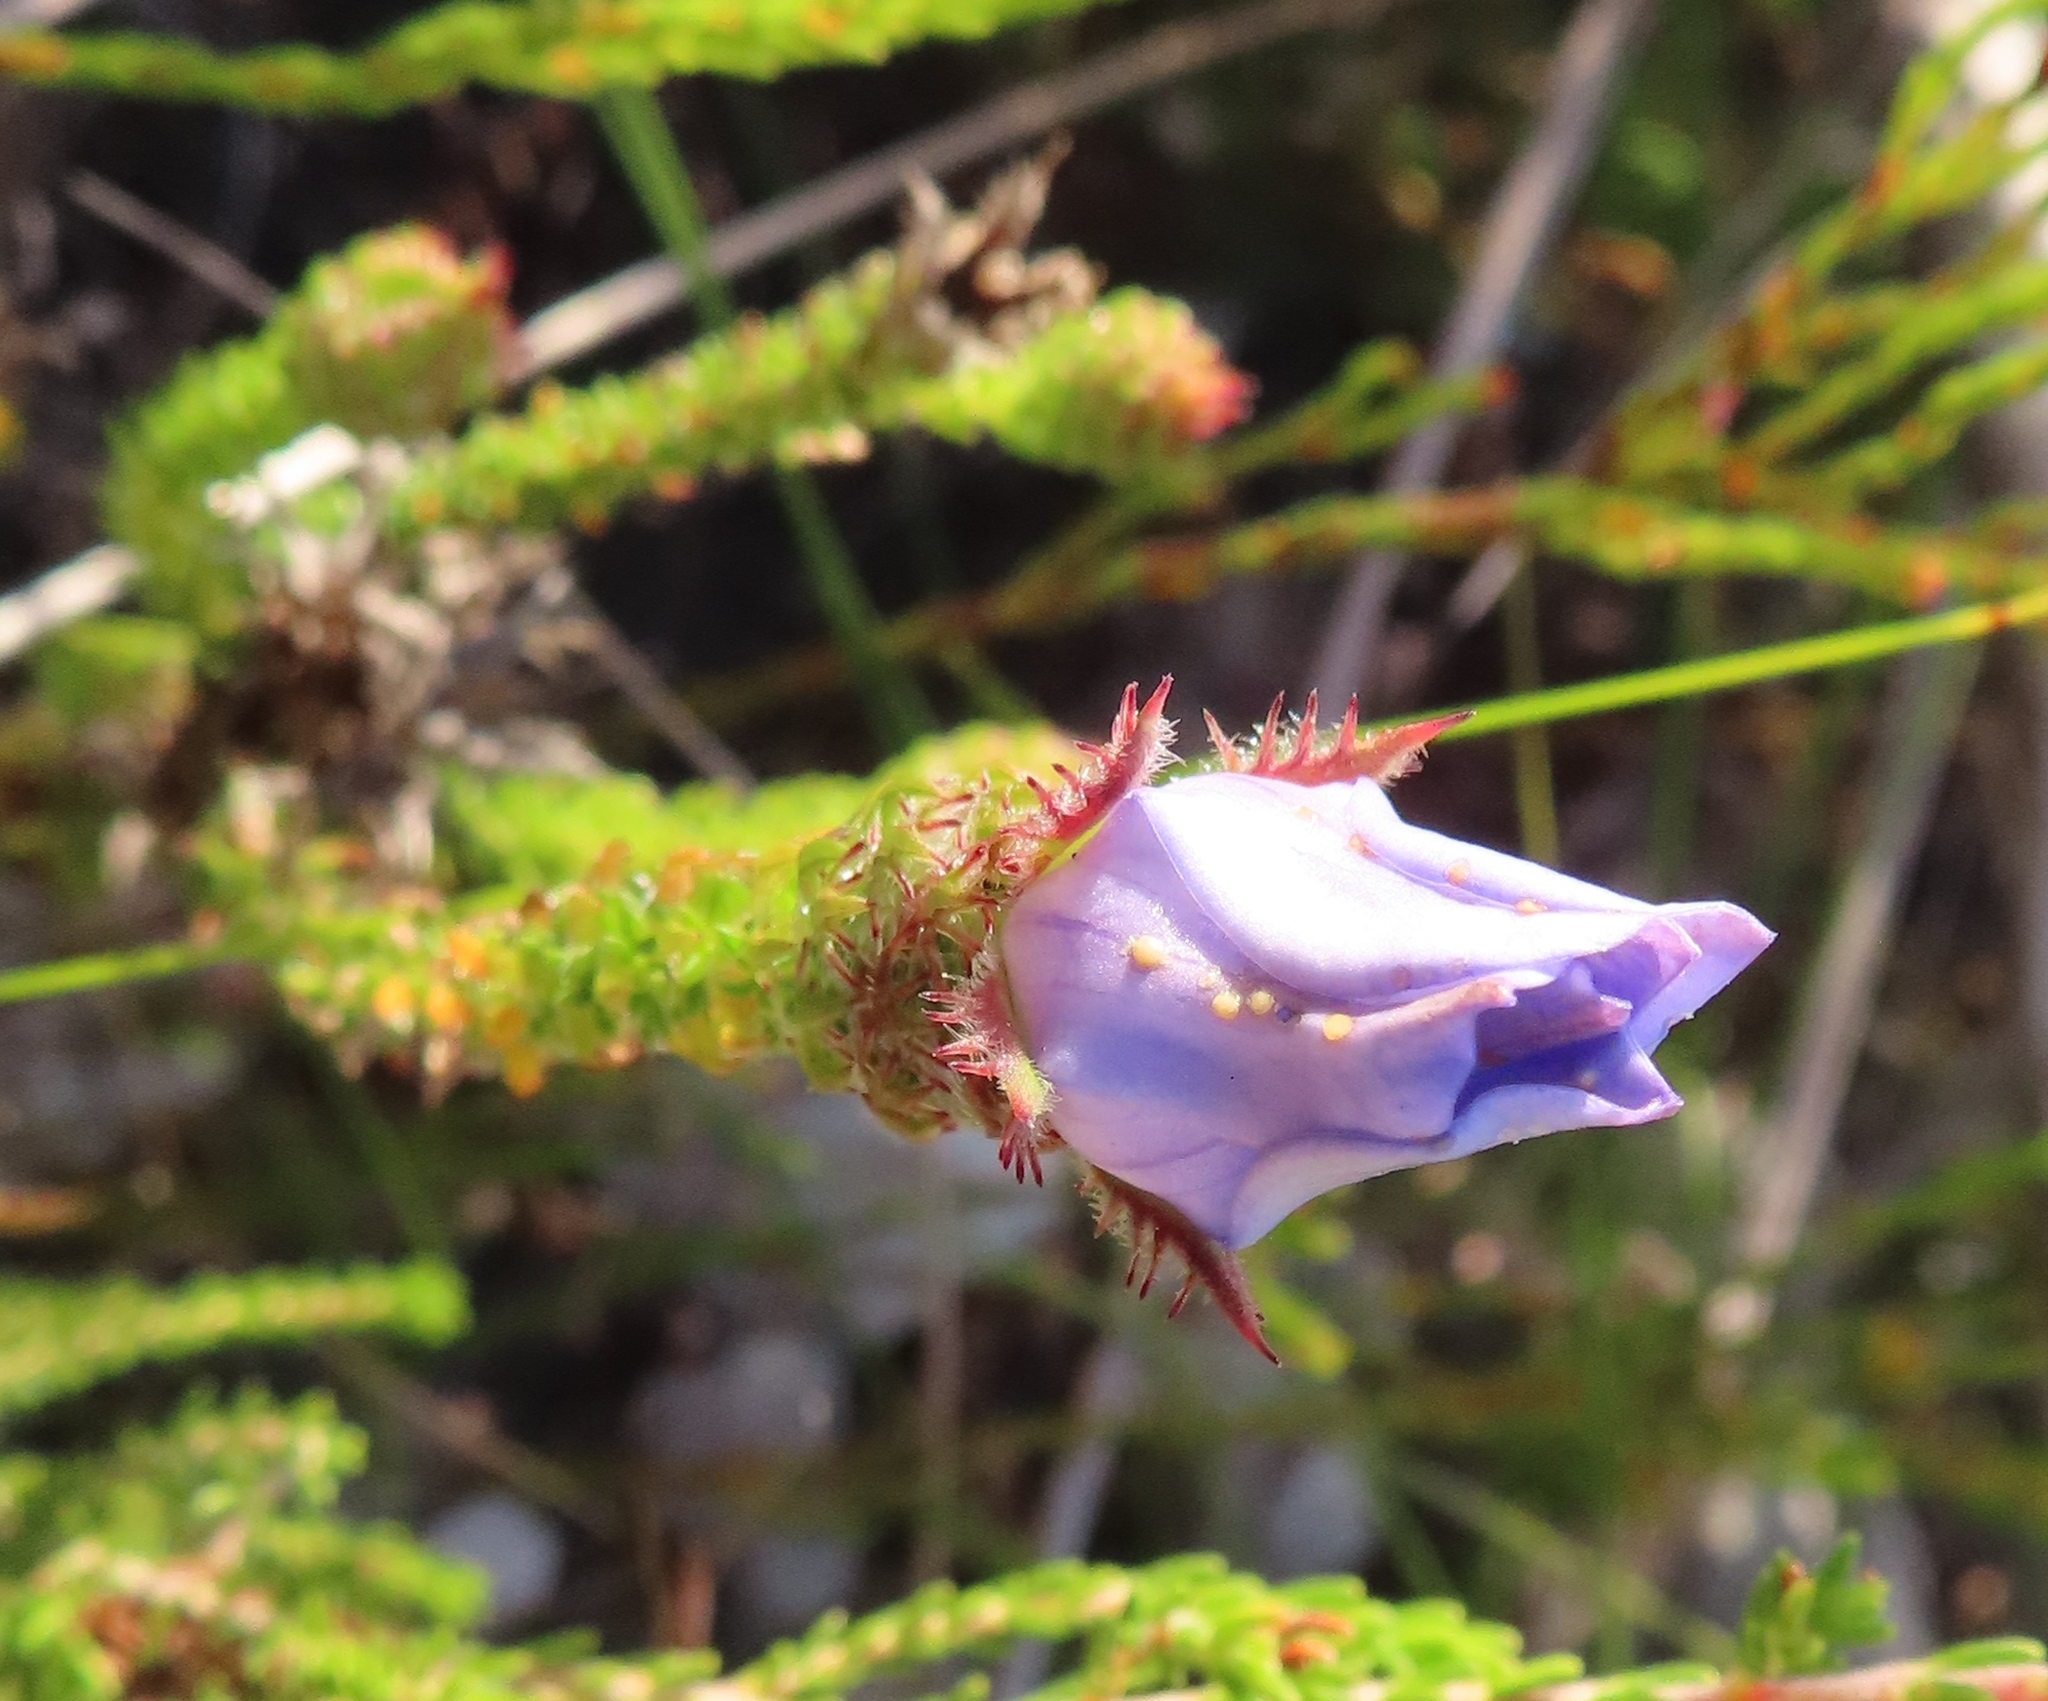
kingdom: Plantae
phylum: Tracheophyta
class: Magnoliopsida
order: Asterales
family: Campanulaceae
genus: Roella
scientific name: Roella ciliata
